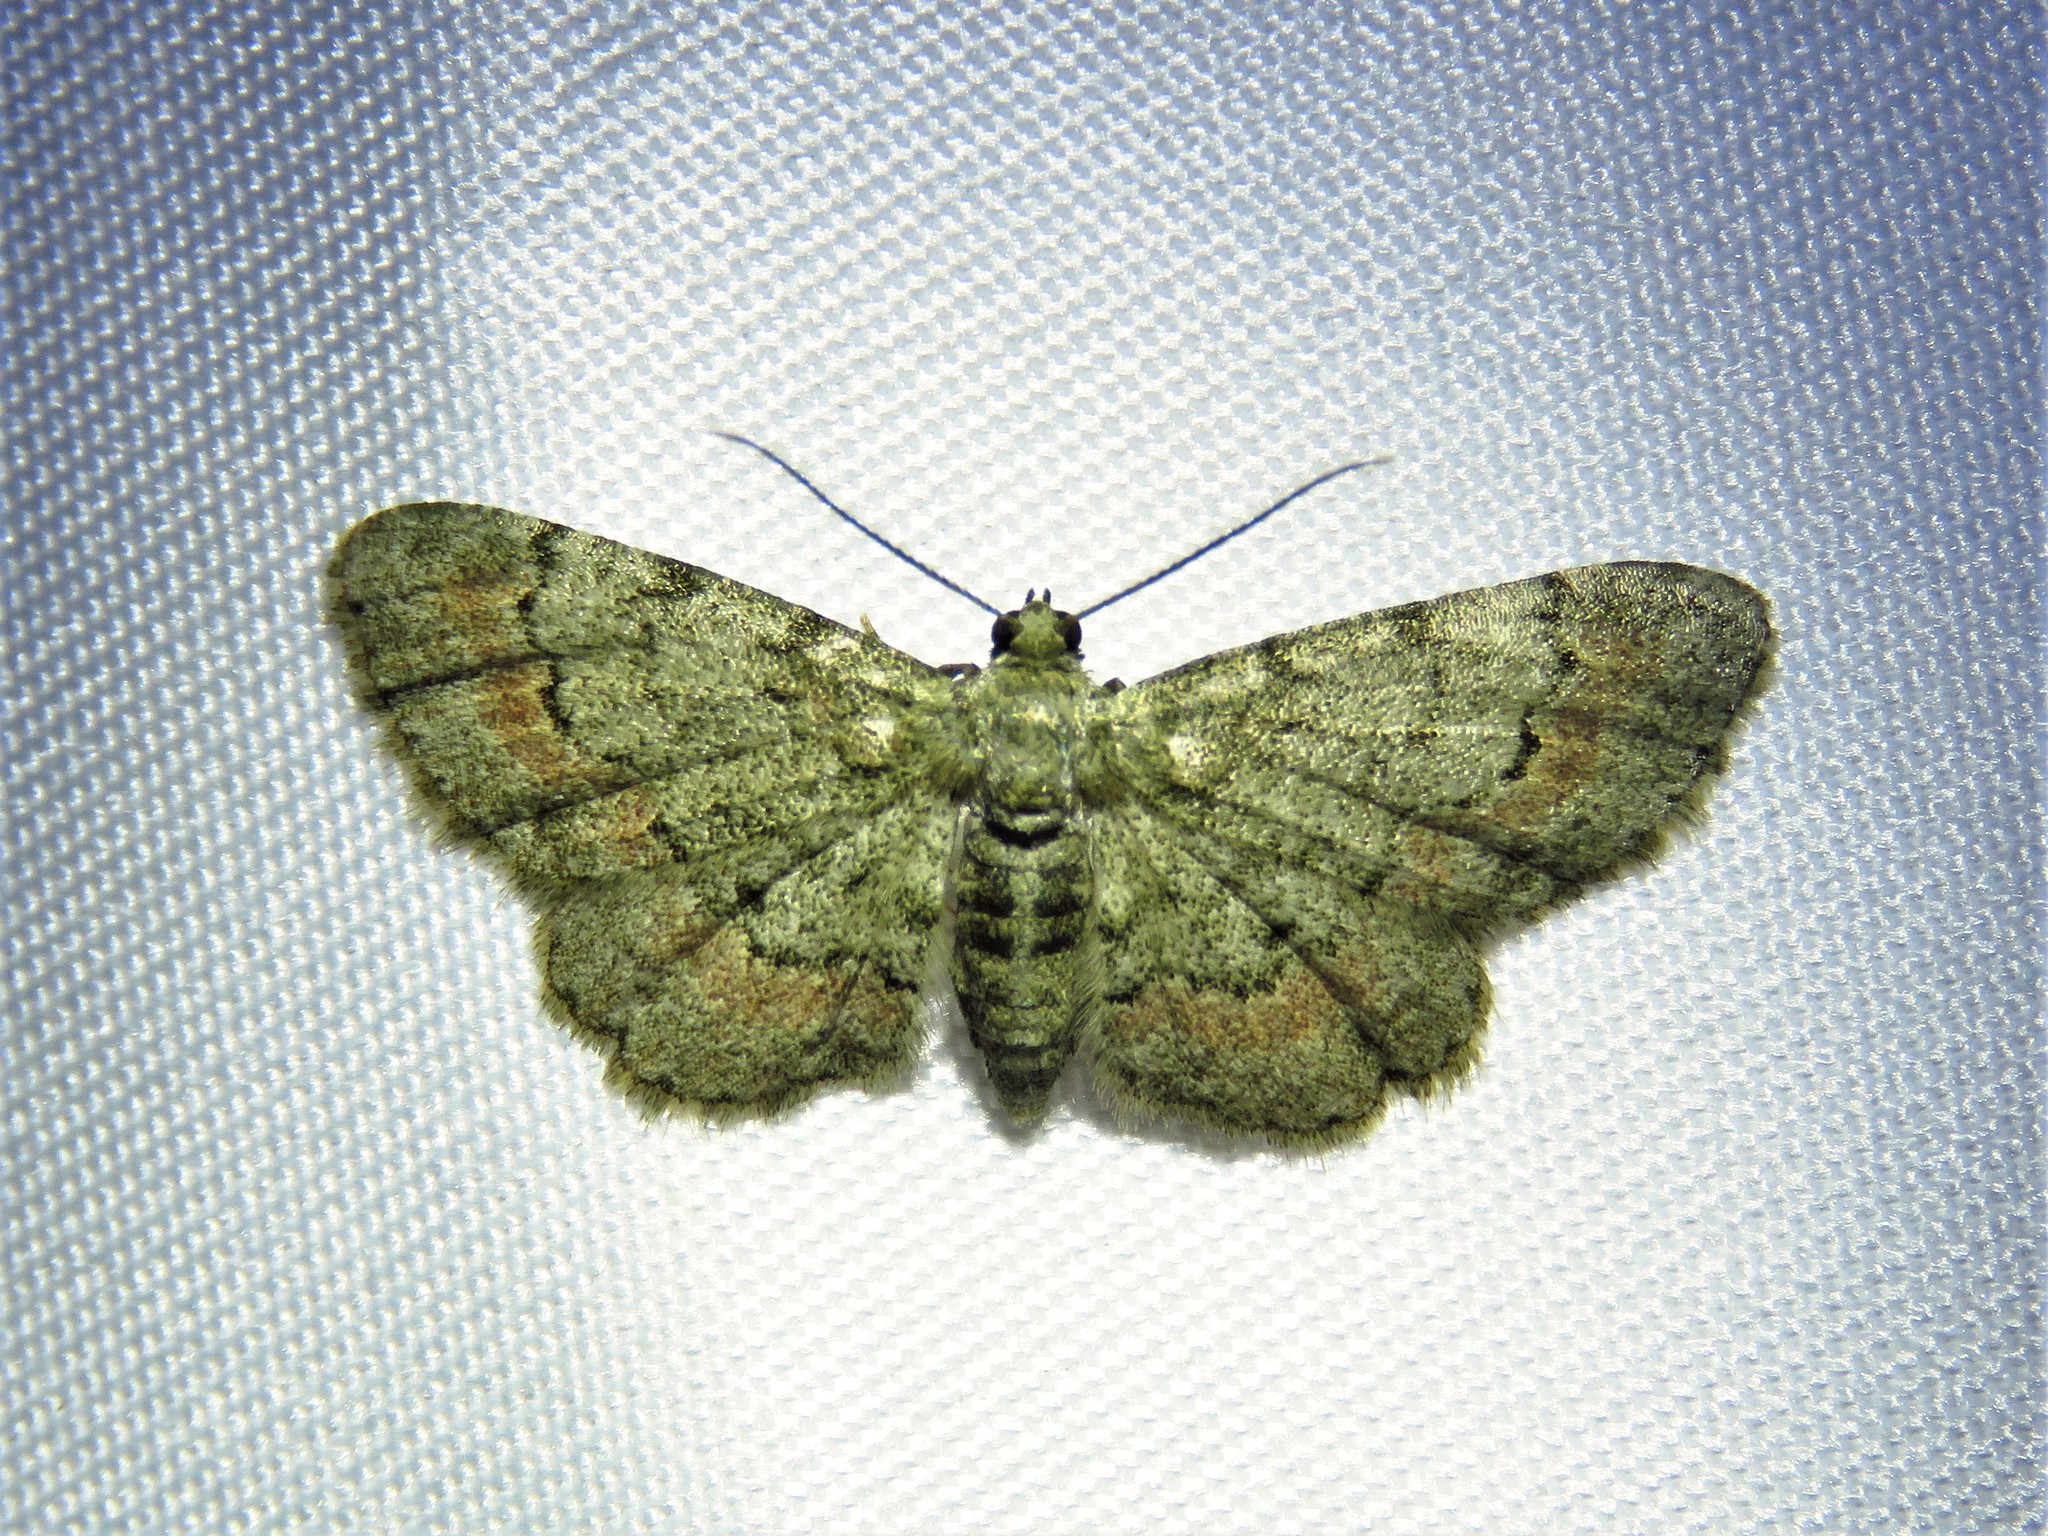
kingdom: Animalia
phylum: Arthropoda
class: Insecta
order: Lepidoptera
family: Geometridae
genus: Glenoides
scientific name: Glenoides texanaria
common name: Texas gray
